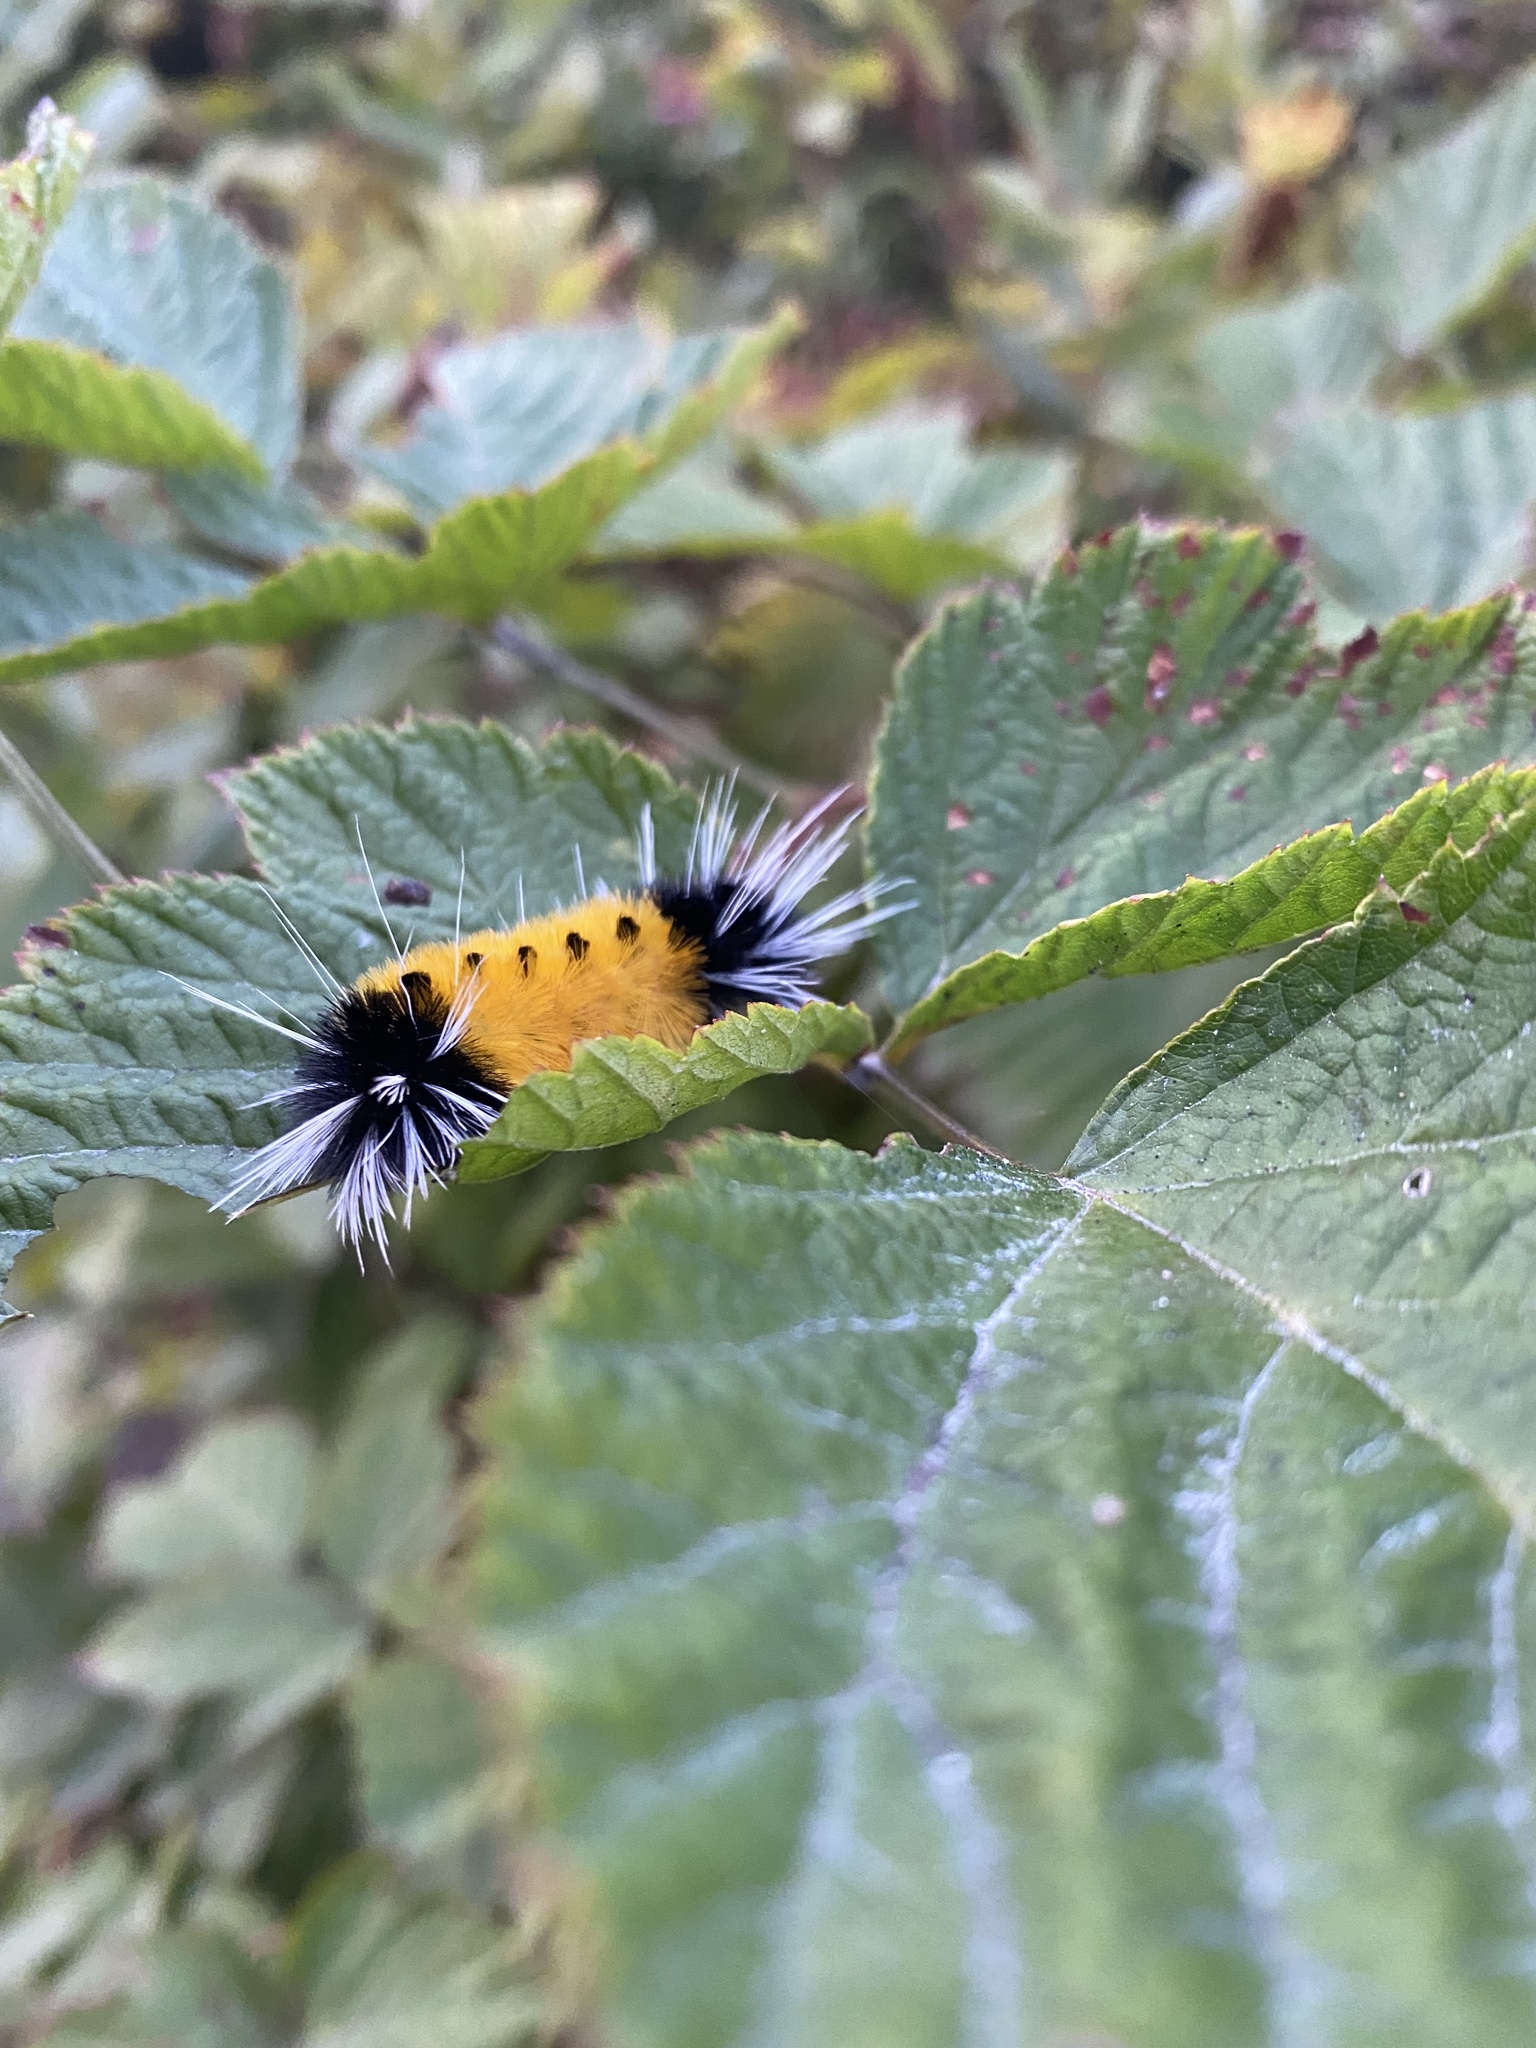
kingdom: Animalia
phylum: Arthropoda
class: Insecta
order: Lepidoptera
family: Erebidae
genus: Lophocampa
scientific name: Lophocampa maculata
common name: Spotted tussock moth
